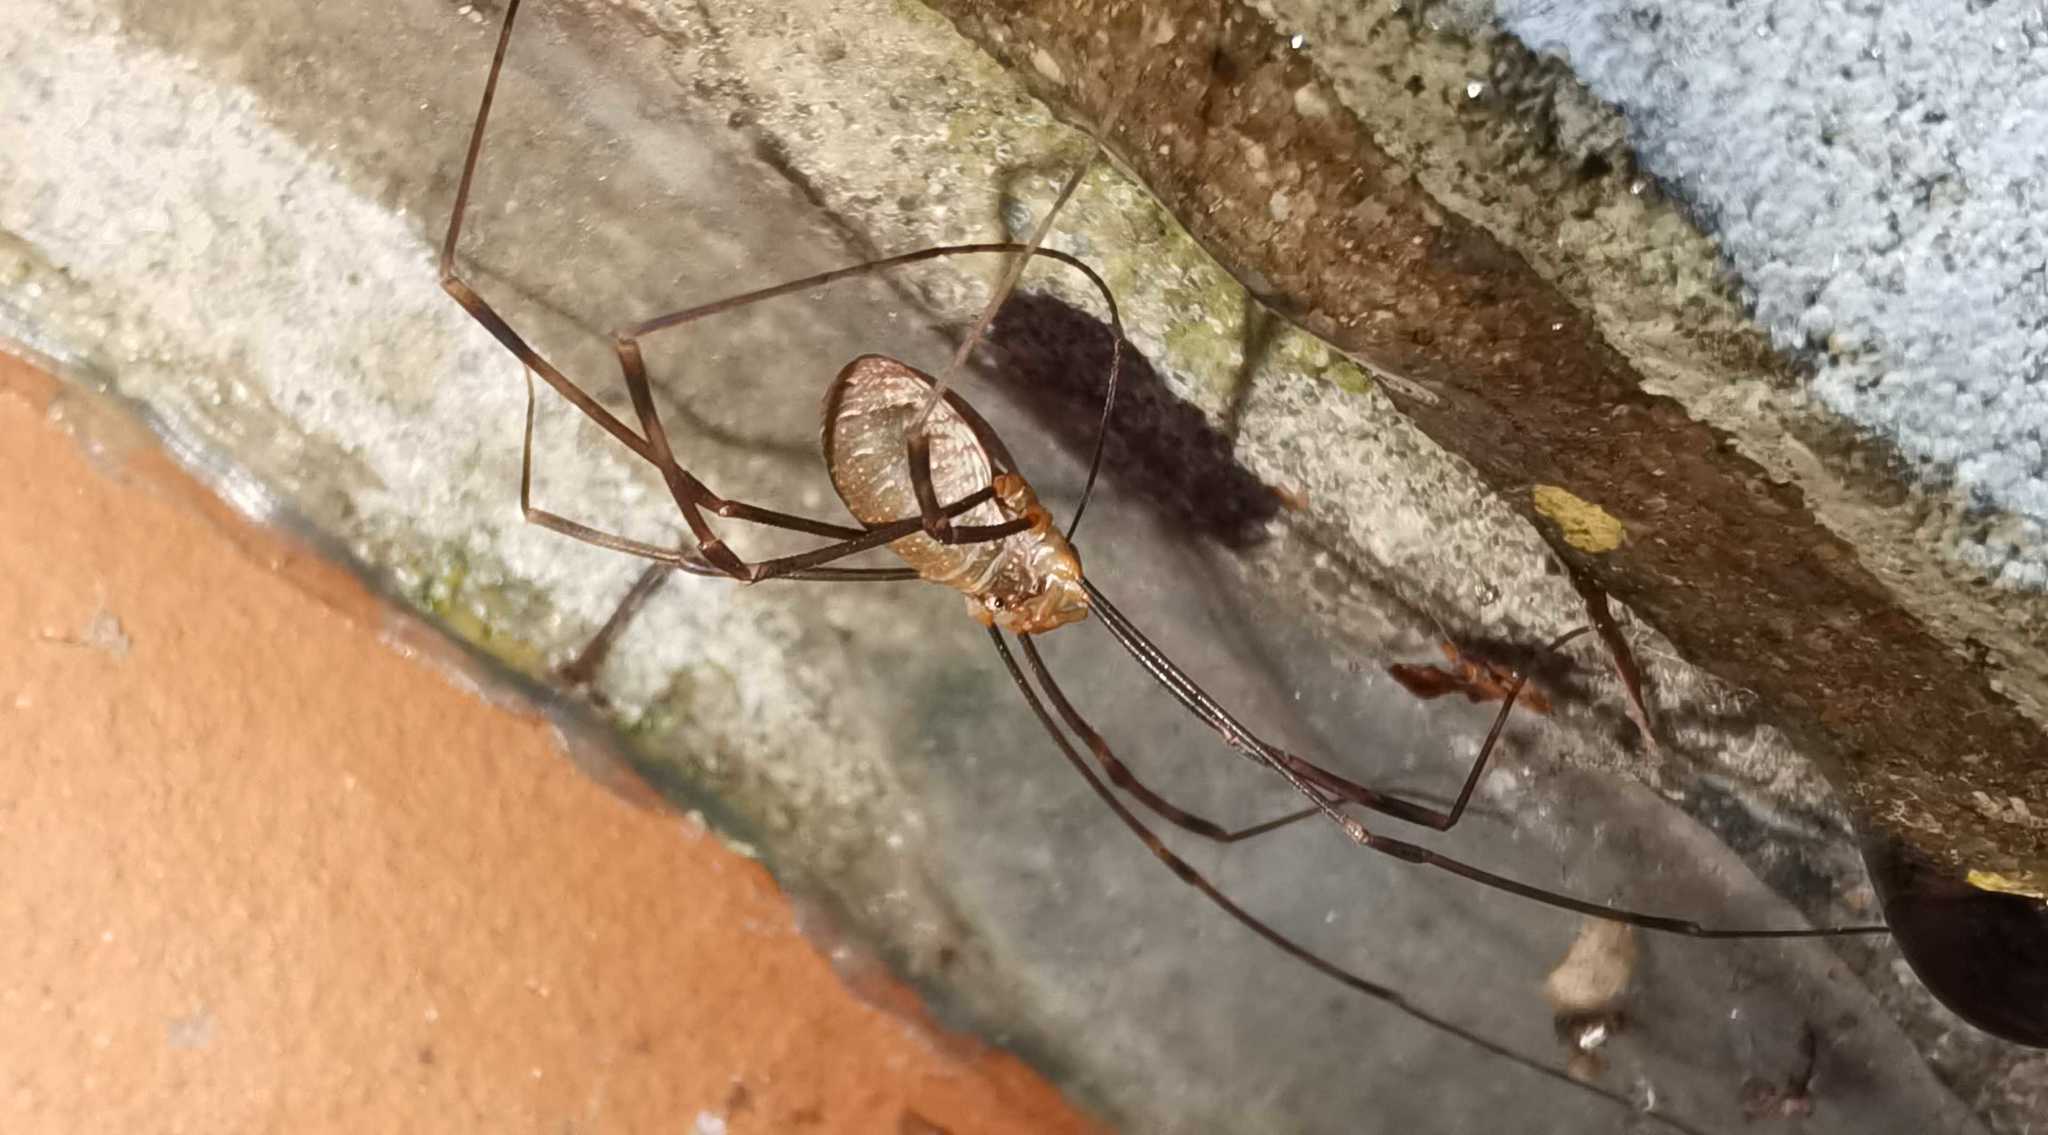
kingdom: Animalia
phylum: Arthropoda
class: Arachnida
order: Opiliones
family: Phalangiidae
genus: Opilio
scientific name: Opilio canestrinii
